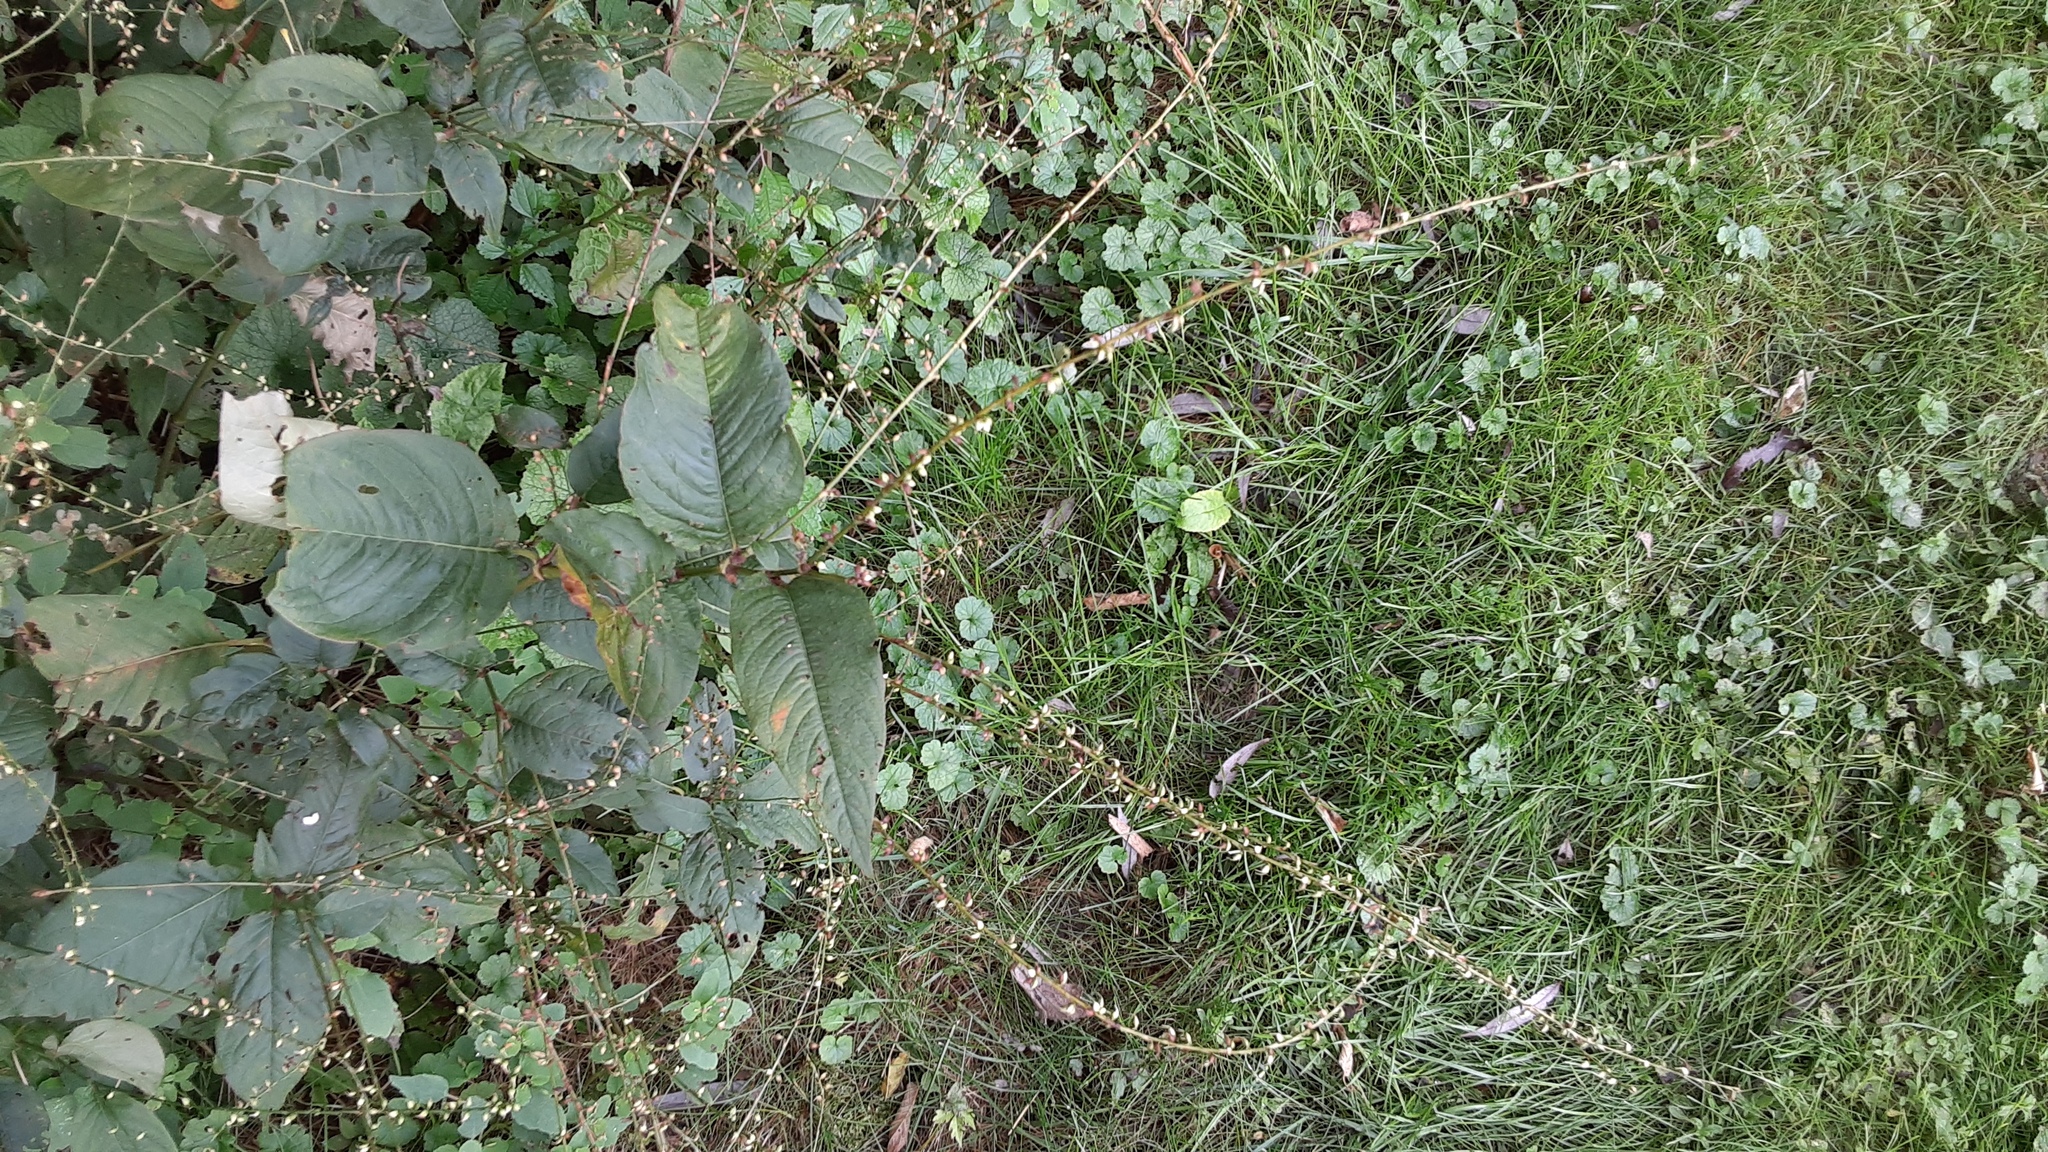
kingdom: Plantae
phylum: Tracheophyta
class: Magnoliopsida
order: Caryophyllales
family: Polygonaceae
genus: Persicaria
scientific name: Persicaria virginiana
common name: Jumpseed
